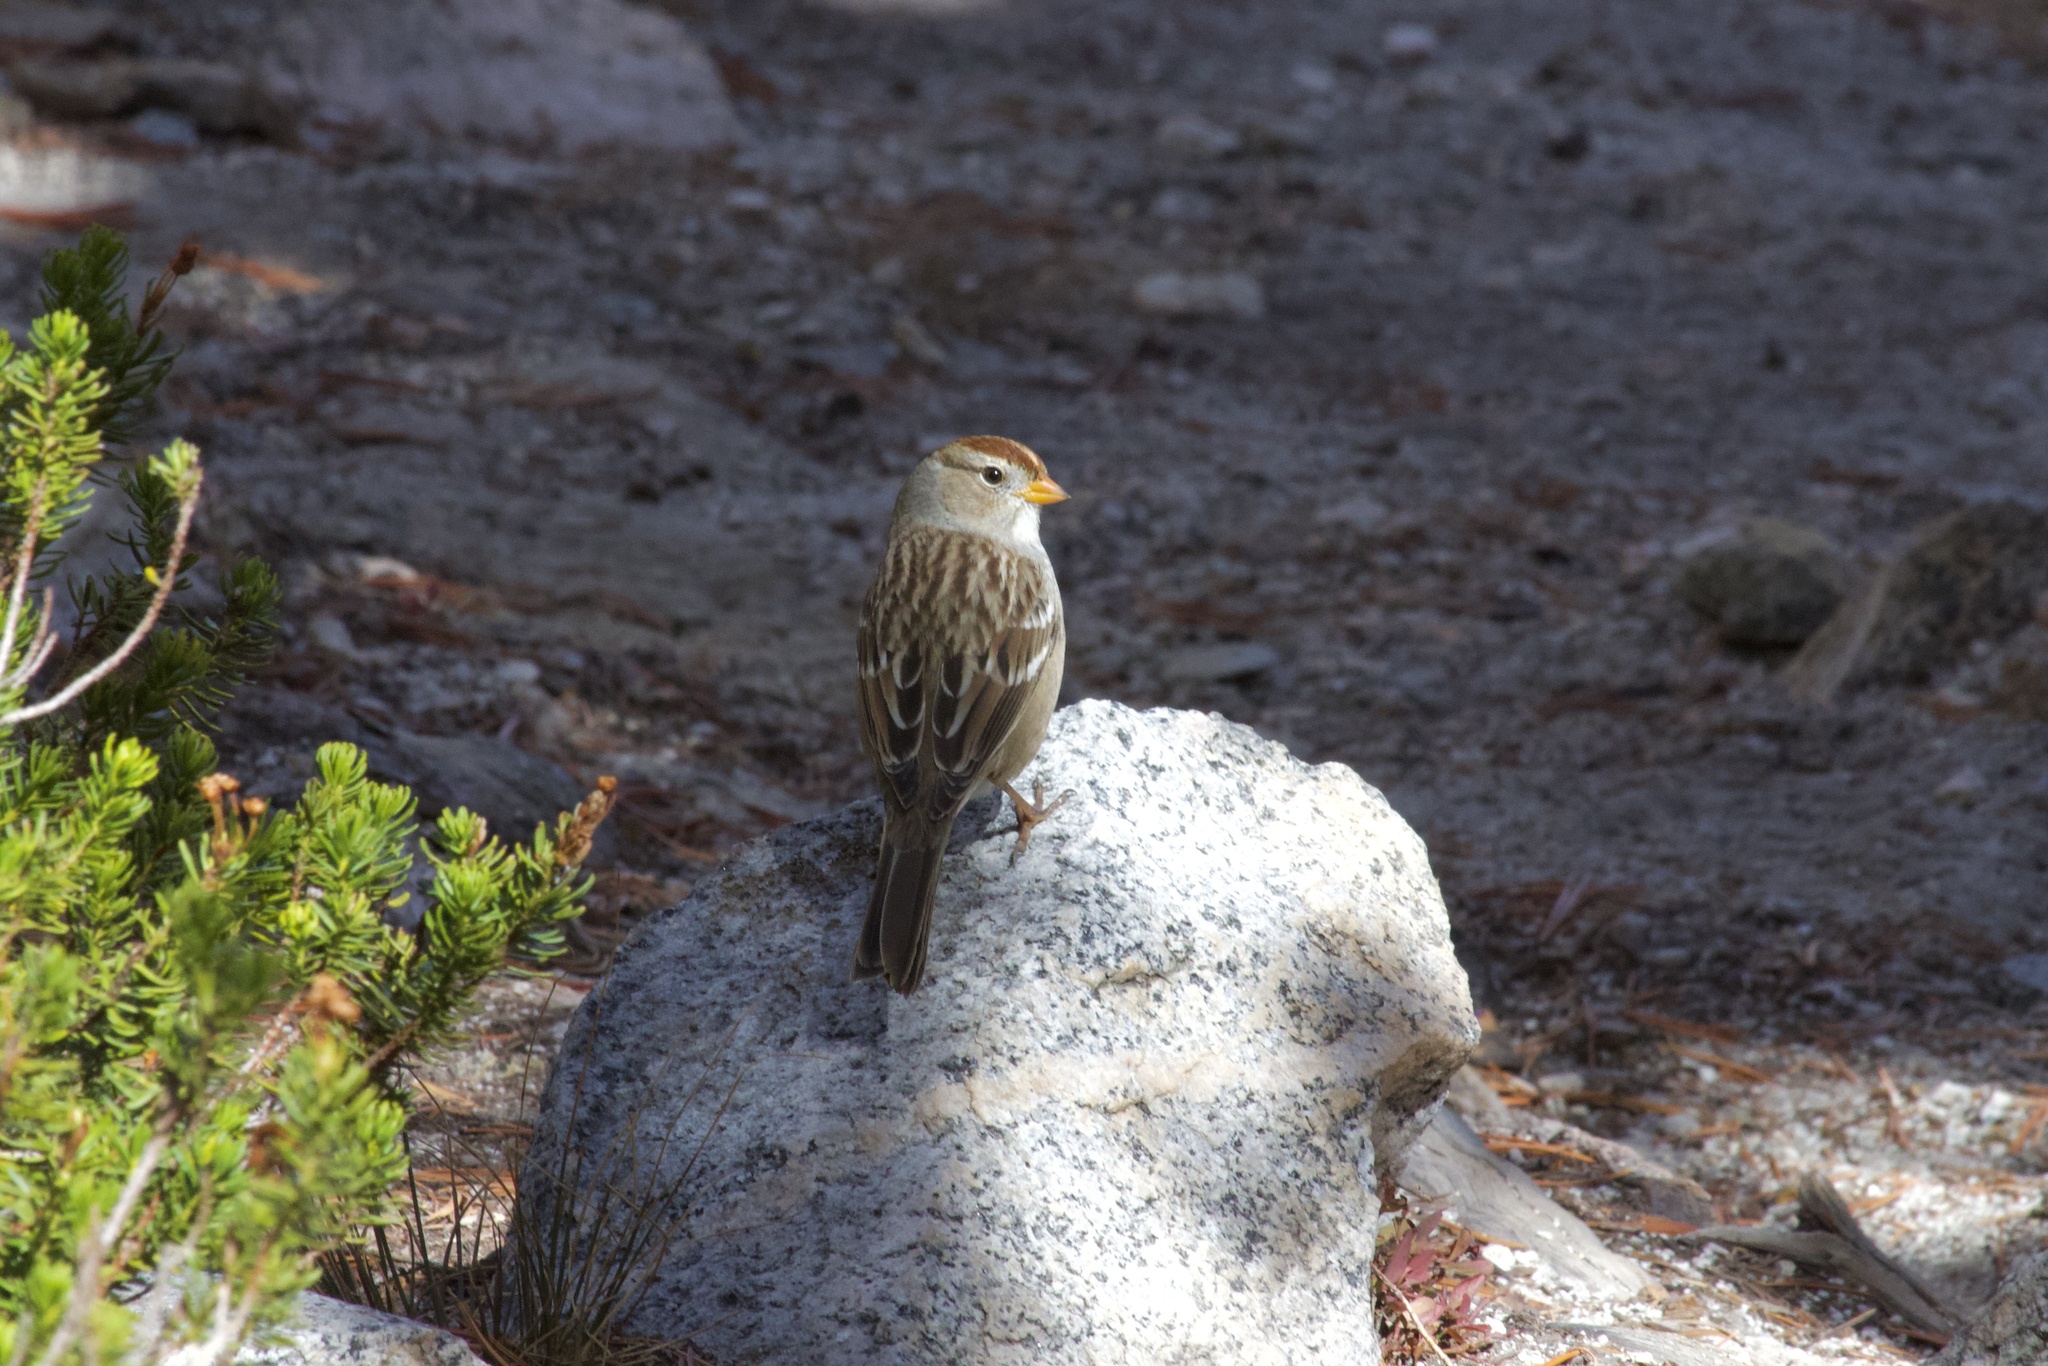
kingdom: Animalia
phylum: Chordata
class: Aves
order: Passeriformes
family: Passerellidae
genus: Zonotrichia
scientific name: Zonotrichia leucophrys
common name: White-crowned sparrow
